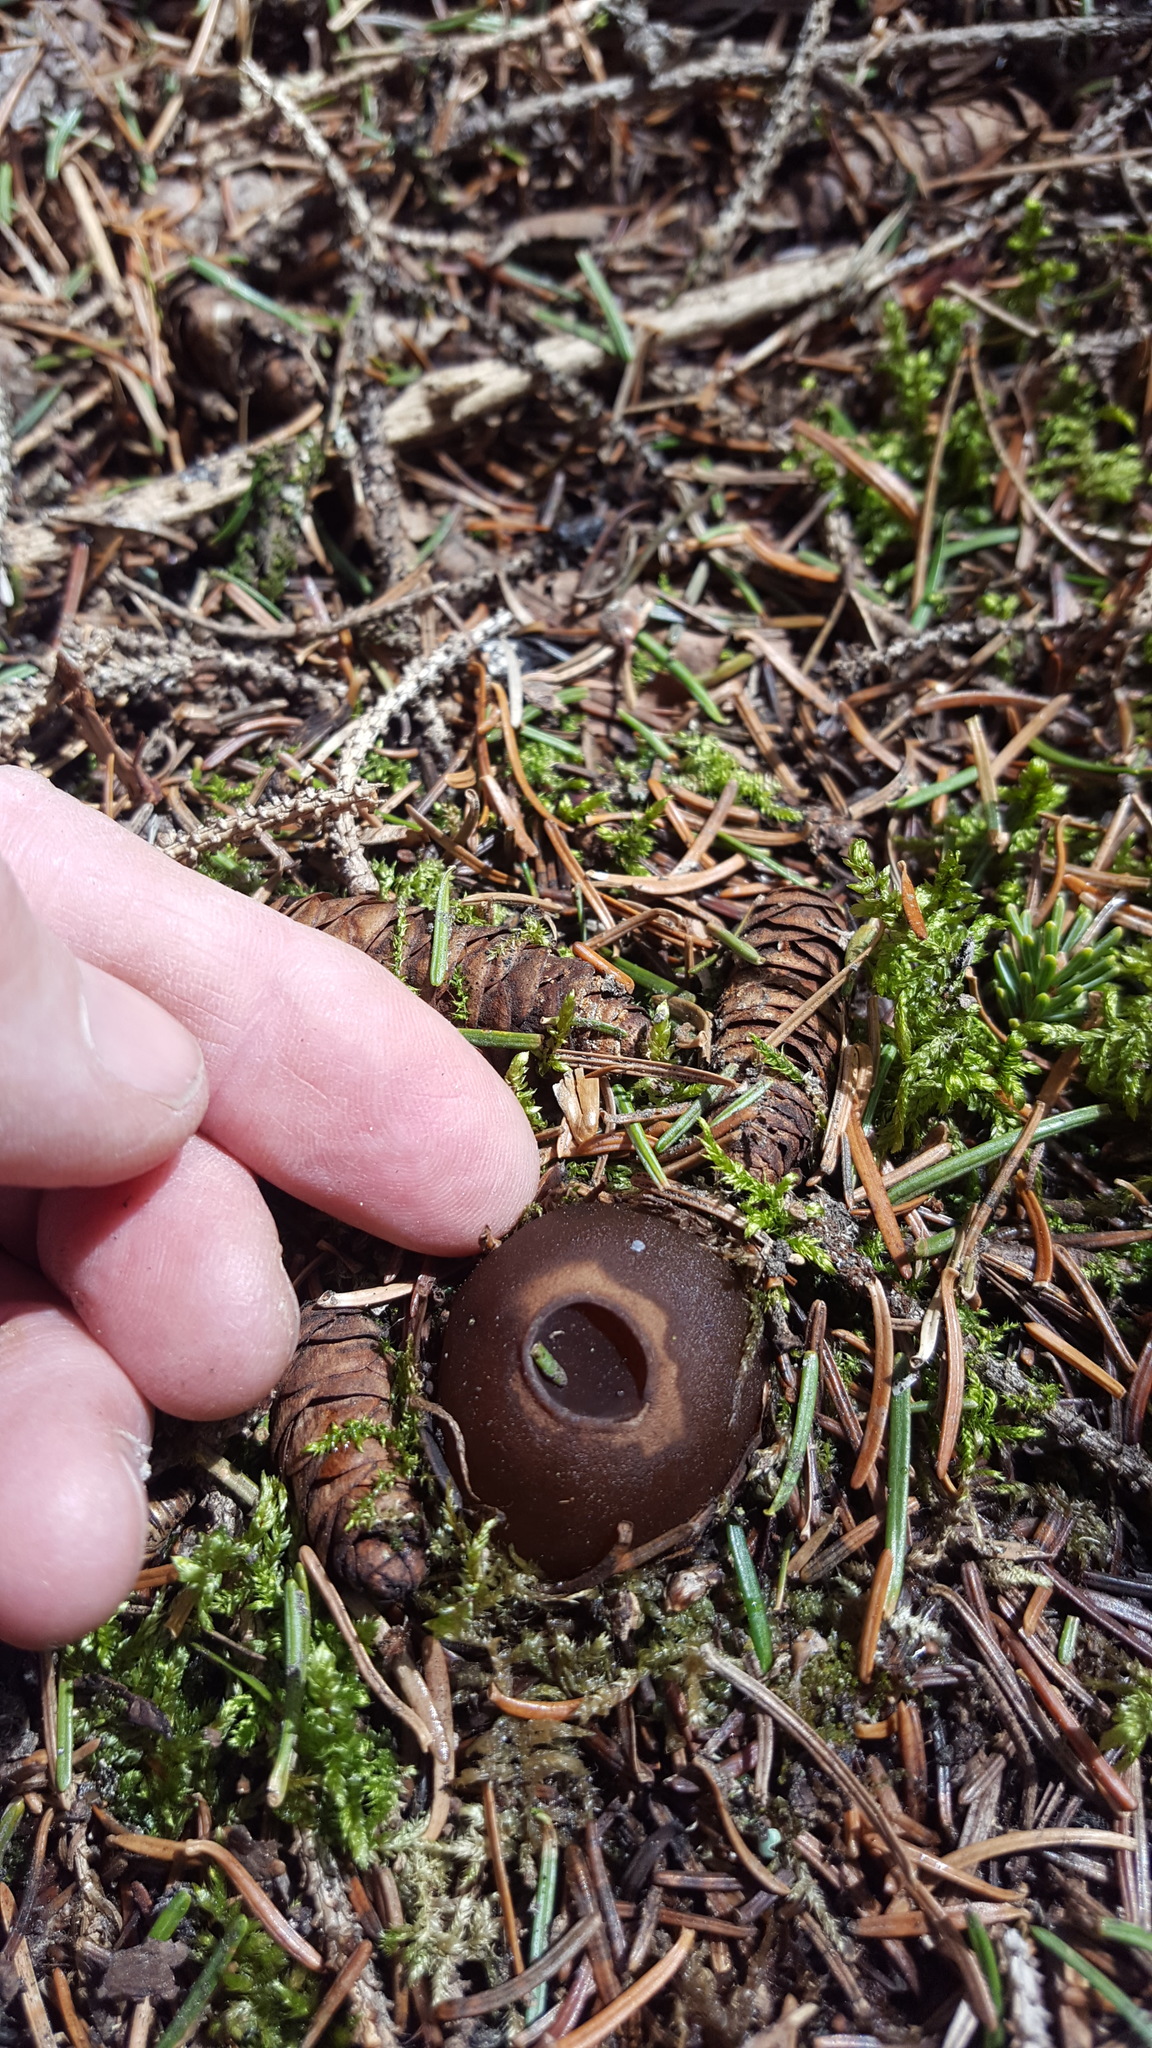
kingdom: Fungi
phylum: Ascomycota
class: Pezizomycetes
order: Pezizales
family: Sarcosomataceae
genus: Sarcosoma
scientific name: Sarcosoma globosum
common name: Charred-pancake cup
